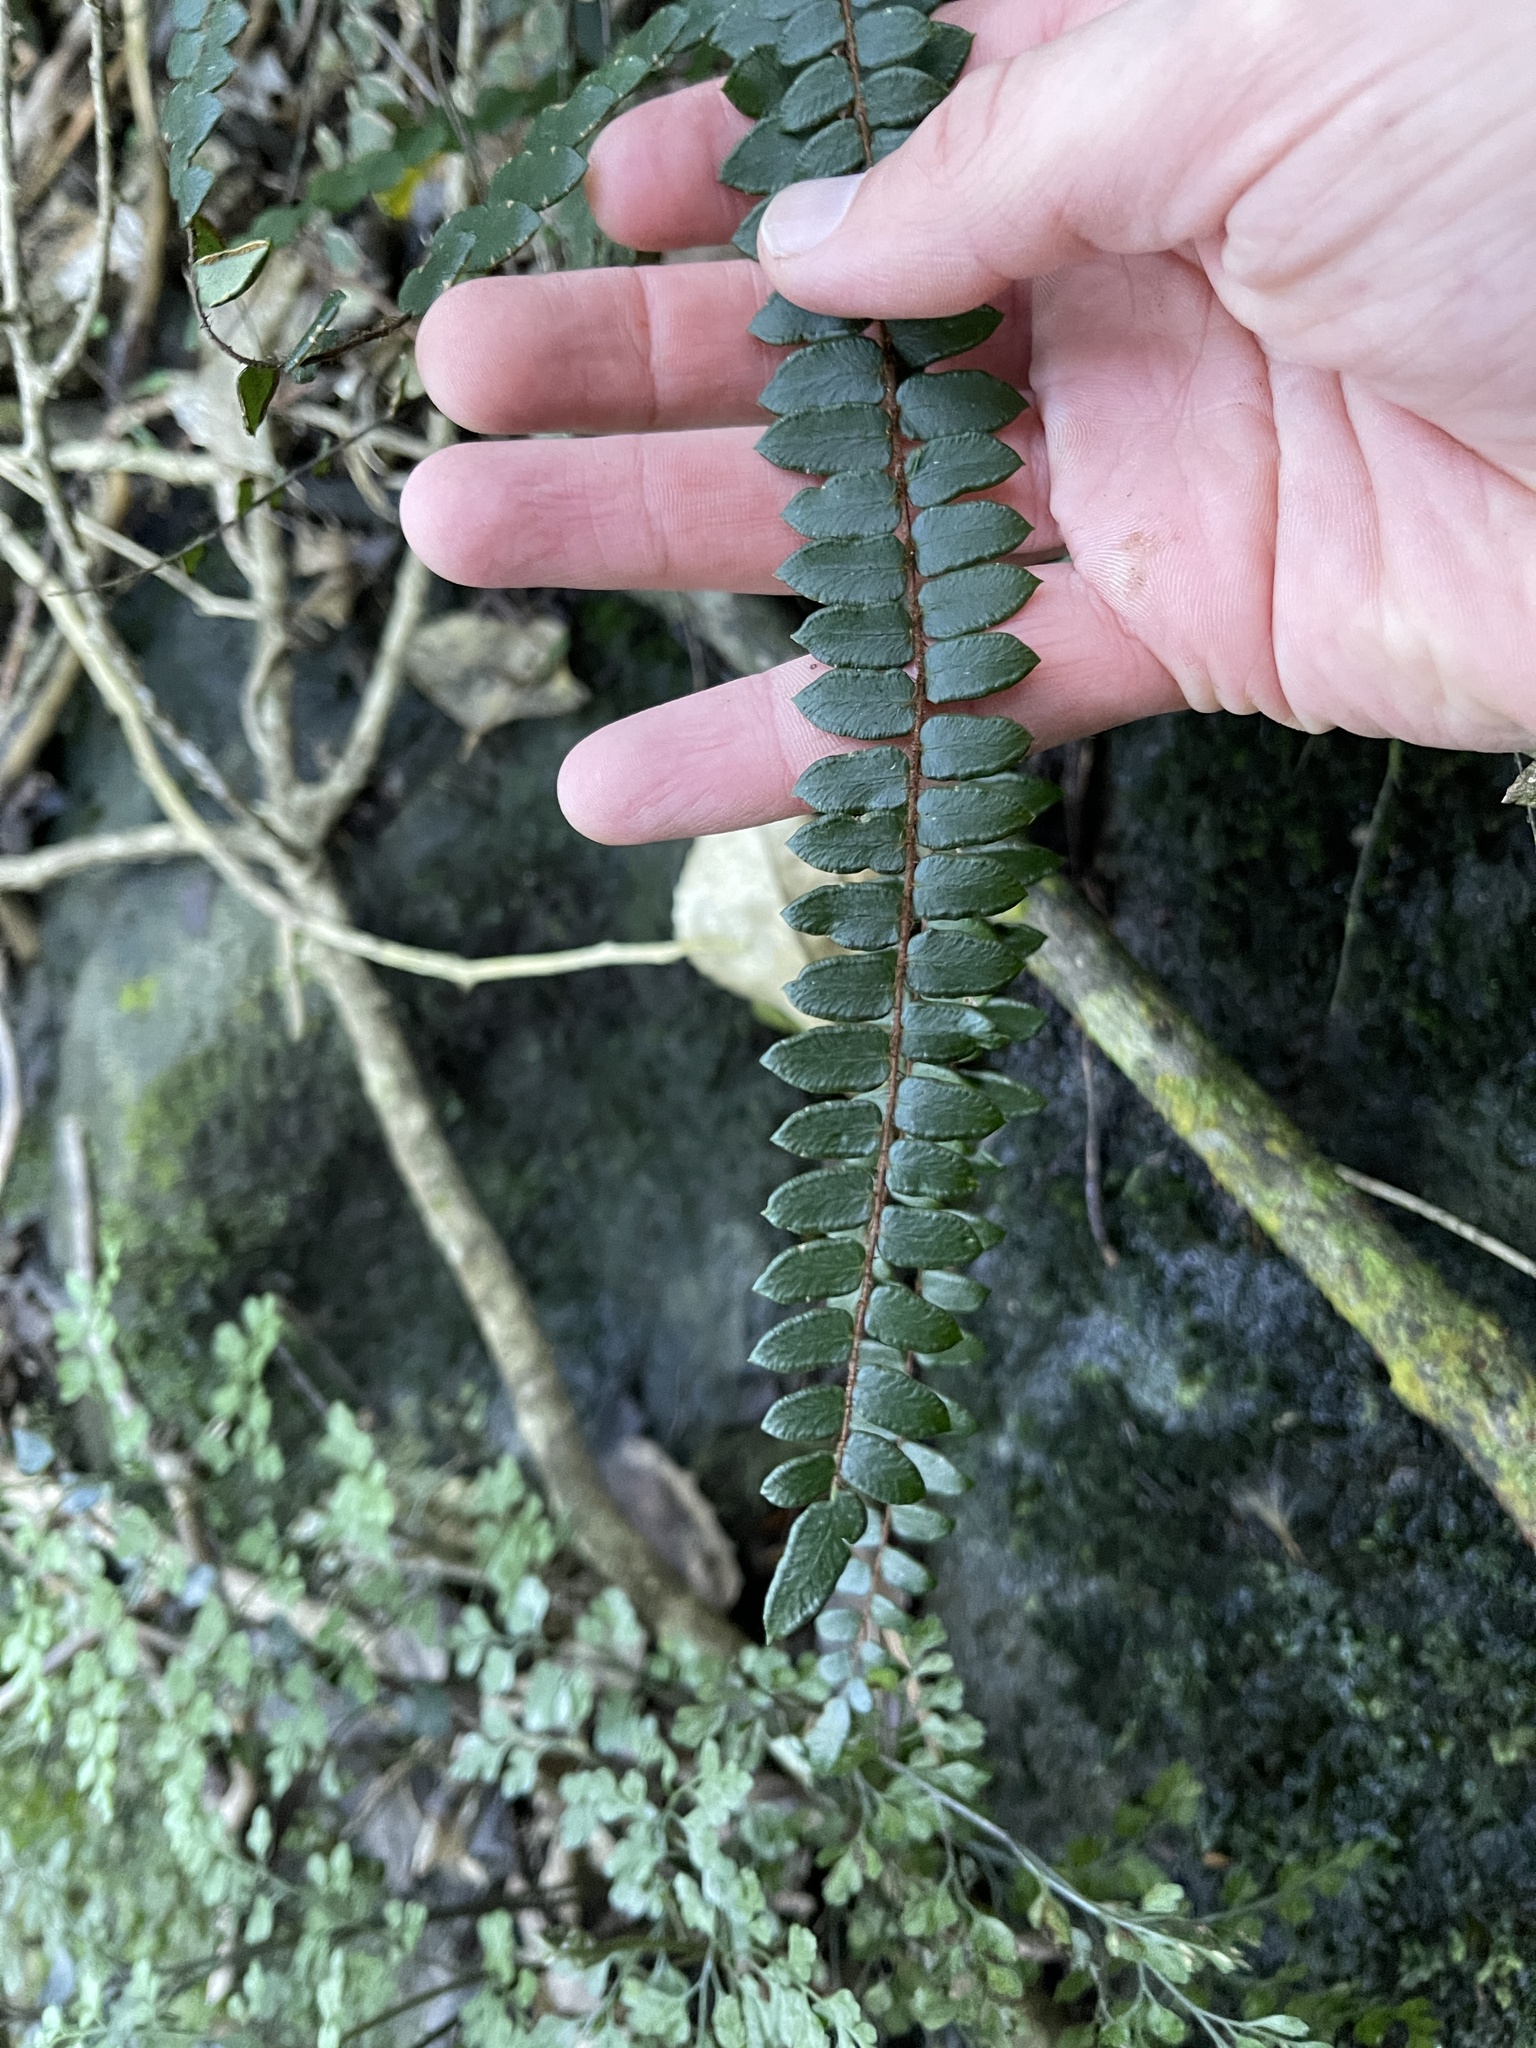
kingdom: Plantae
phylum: Tracheophyta
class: Polypodiopsida
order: Polypodiales
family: Pteridaceae
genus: Pellaea
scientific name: Pellaea rotundifolia
